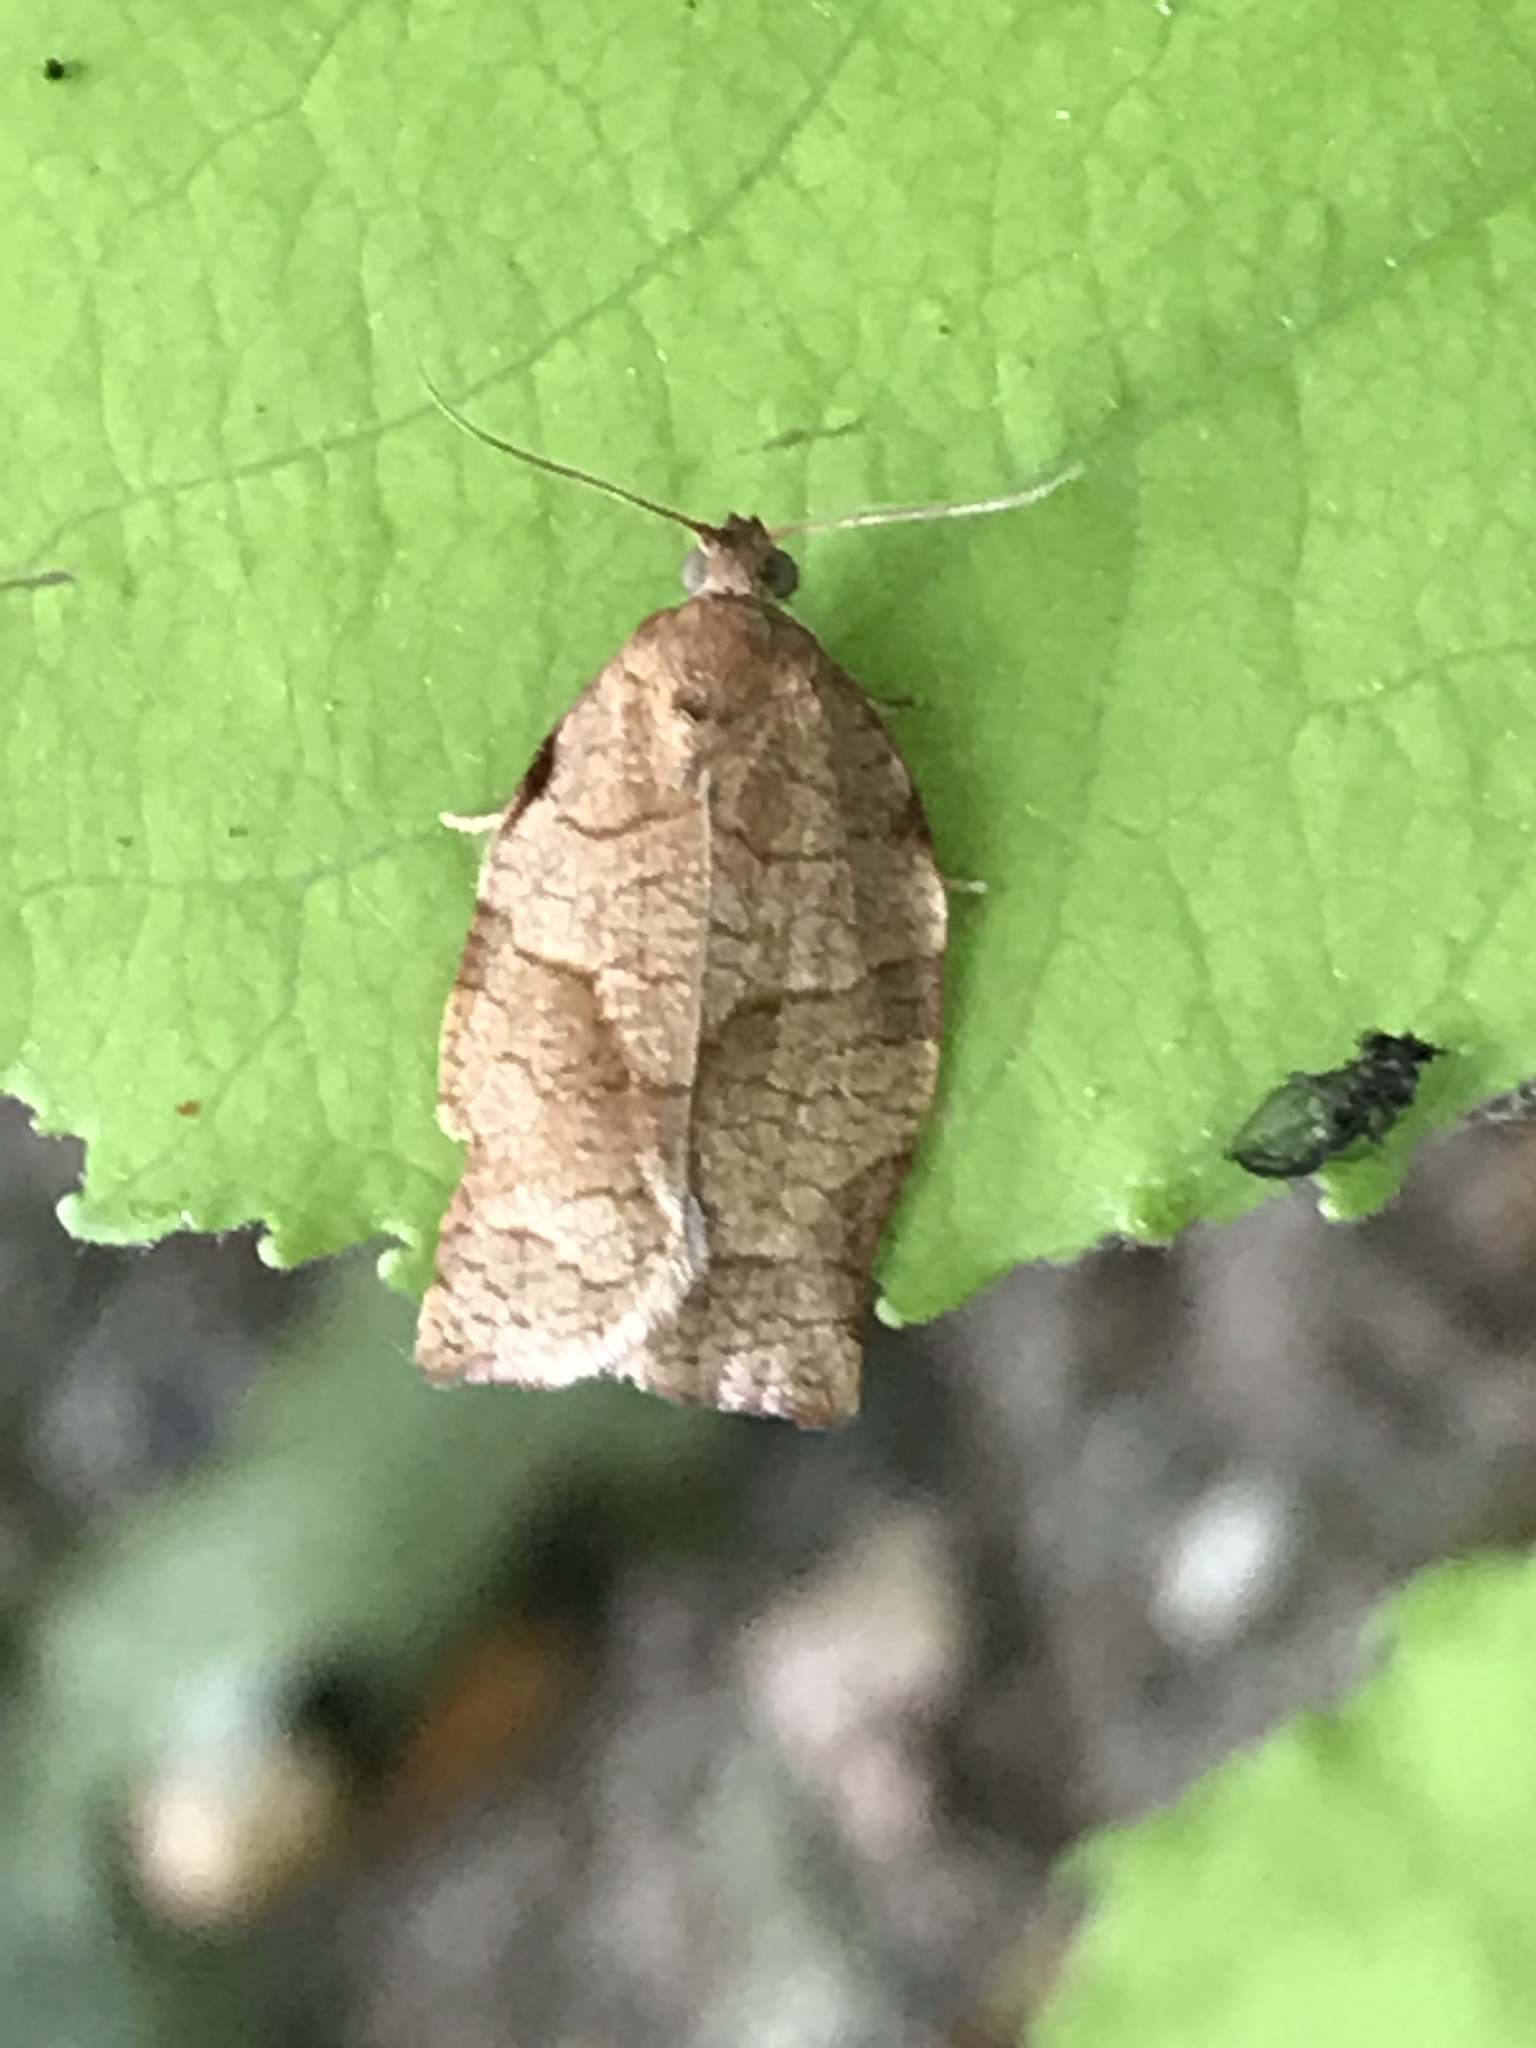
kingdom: Animalia
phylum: Arthropoda
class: Insecta
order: Lepidoptera
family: Tortricidae
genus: Choristoneura
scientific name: Choristoneura rosaceana
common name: Oblique-banded leafroller moth
